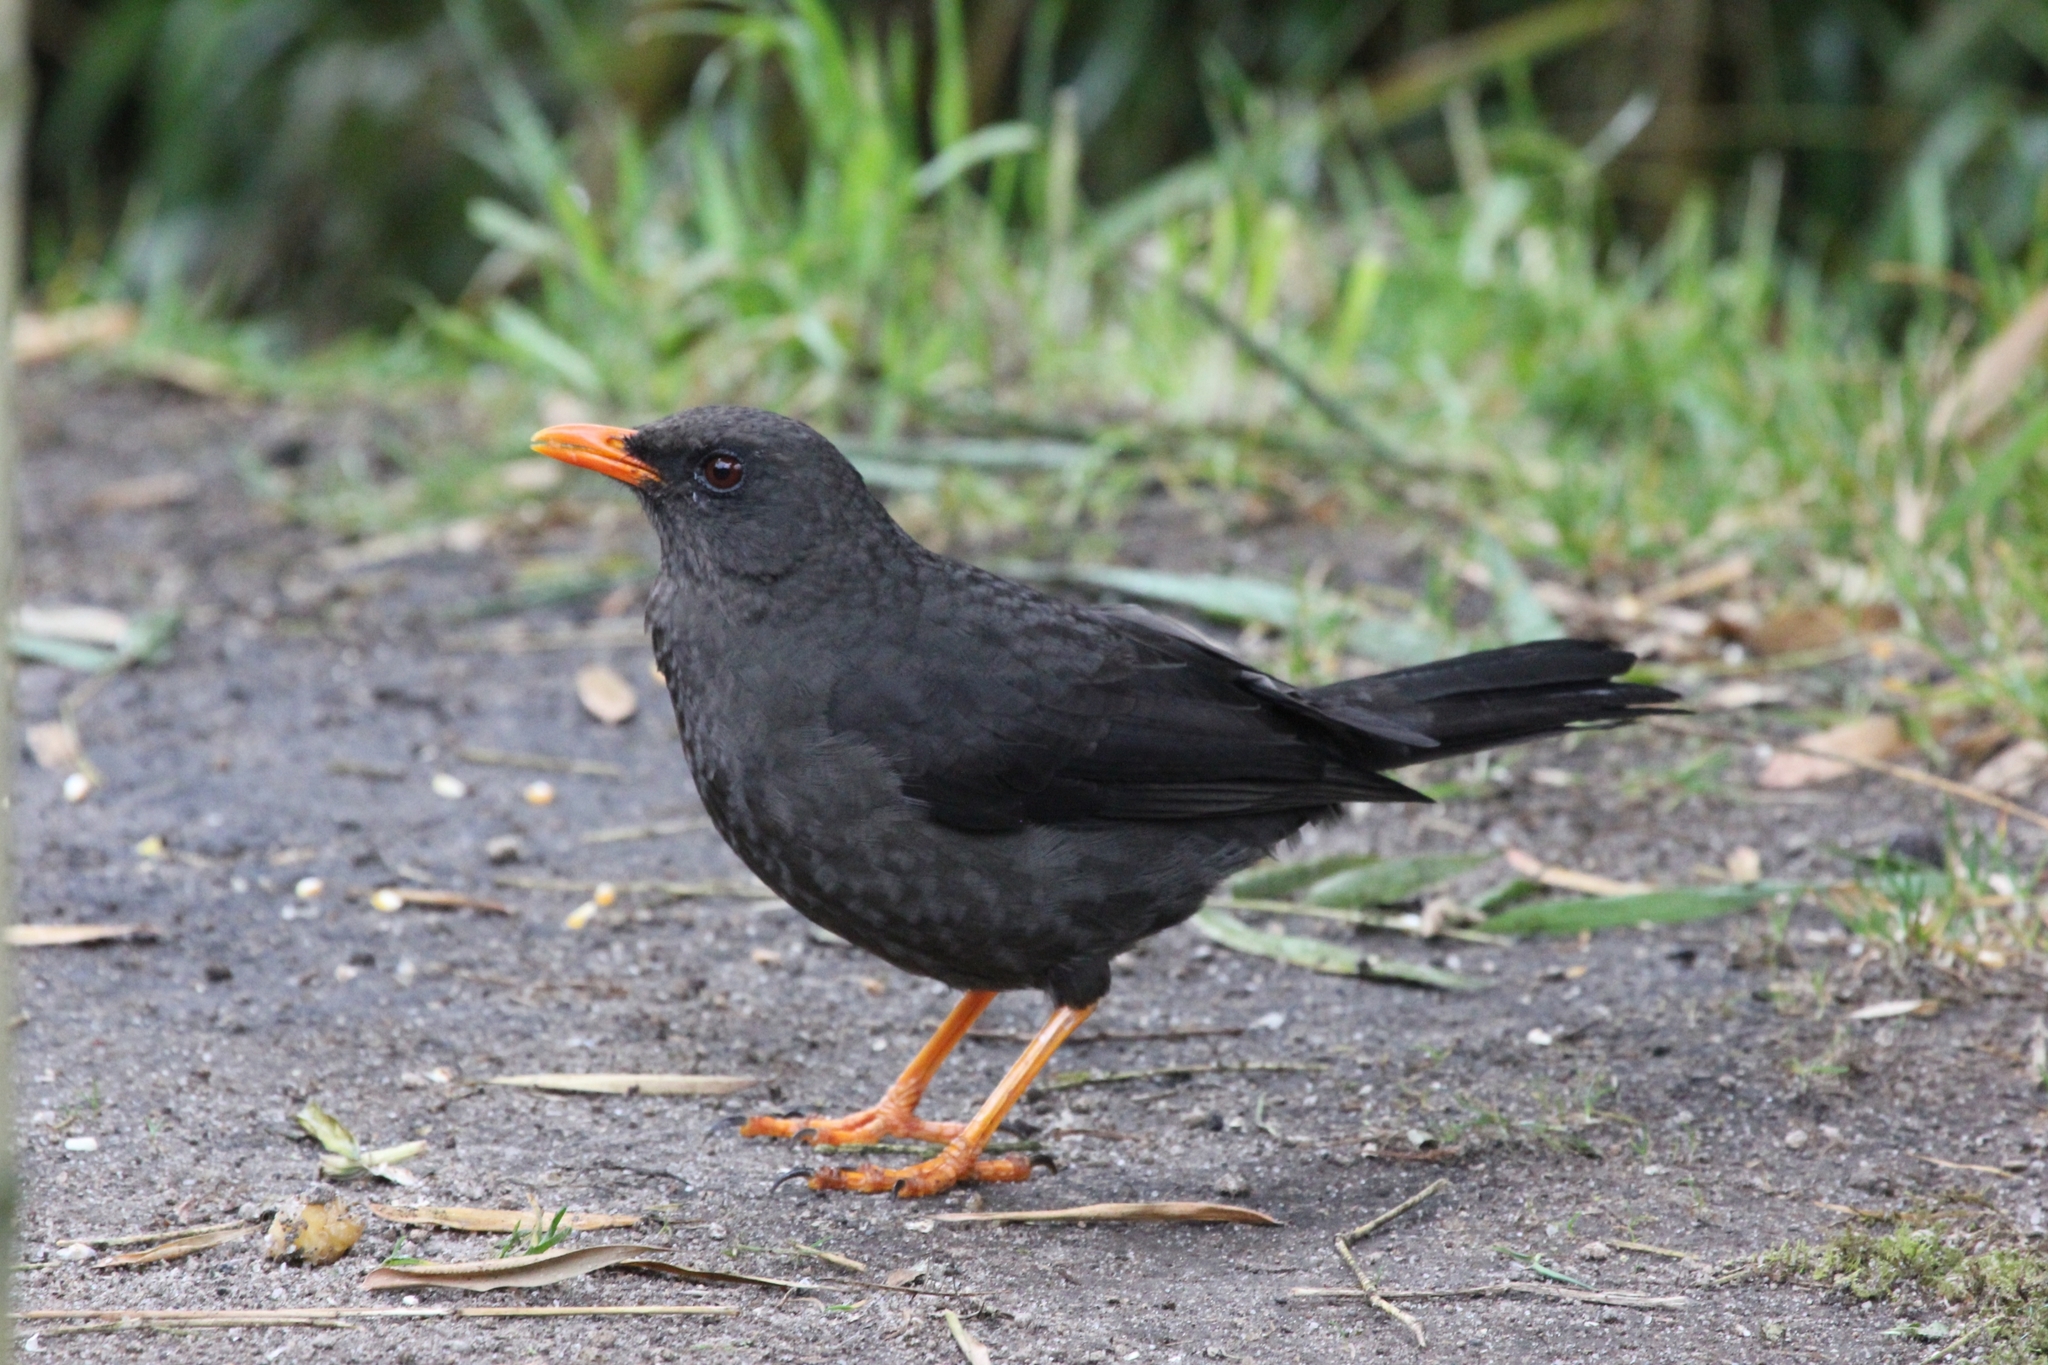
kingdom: Animalia
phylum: Chordata
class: Aves
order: Passeriformes
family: Turdidae
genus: Turdus
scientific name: Turdus fuscater
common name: Great thrush
